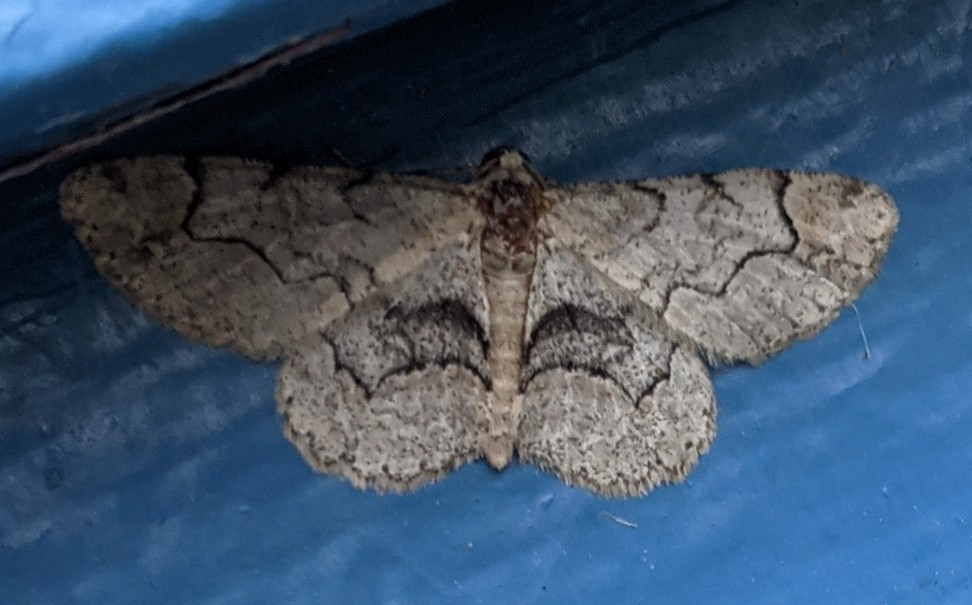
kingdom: Animalia
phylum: Arthropoda
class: Insecta
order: Lepidoptera
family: Geometridae
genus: Iridopsis
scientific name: Iridopsis larvaria
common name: Bent-line gray
